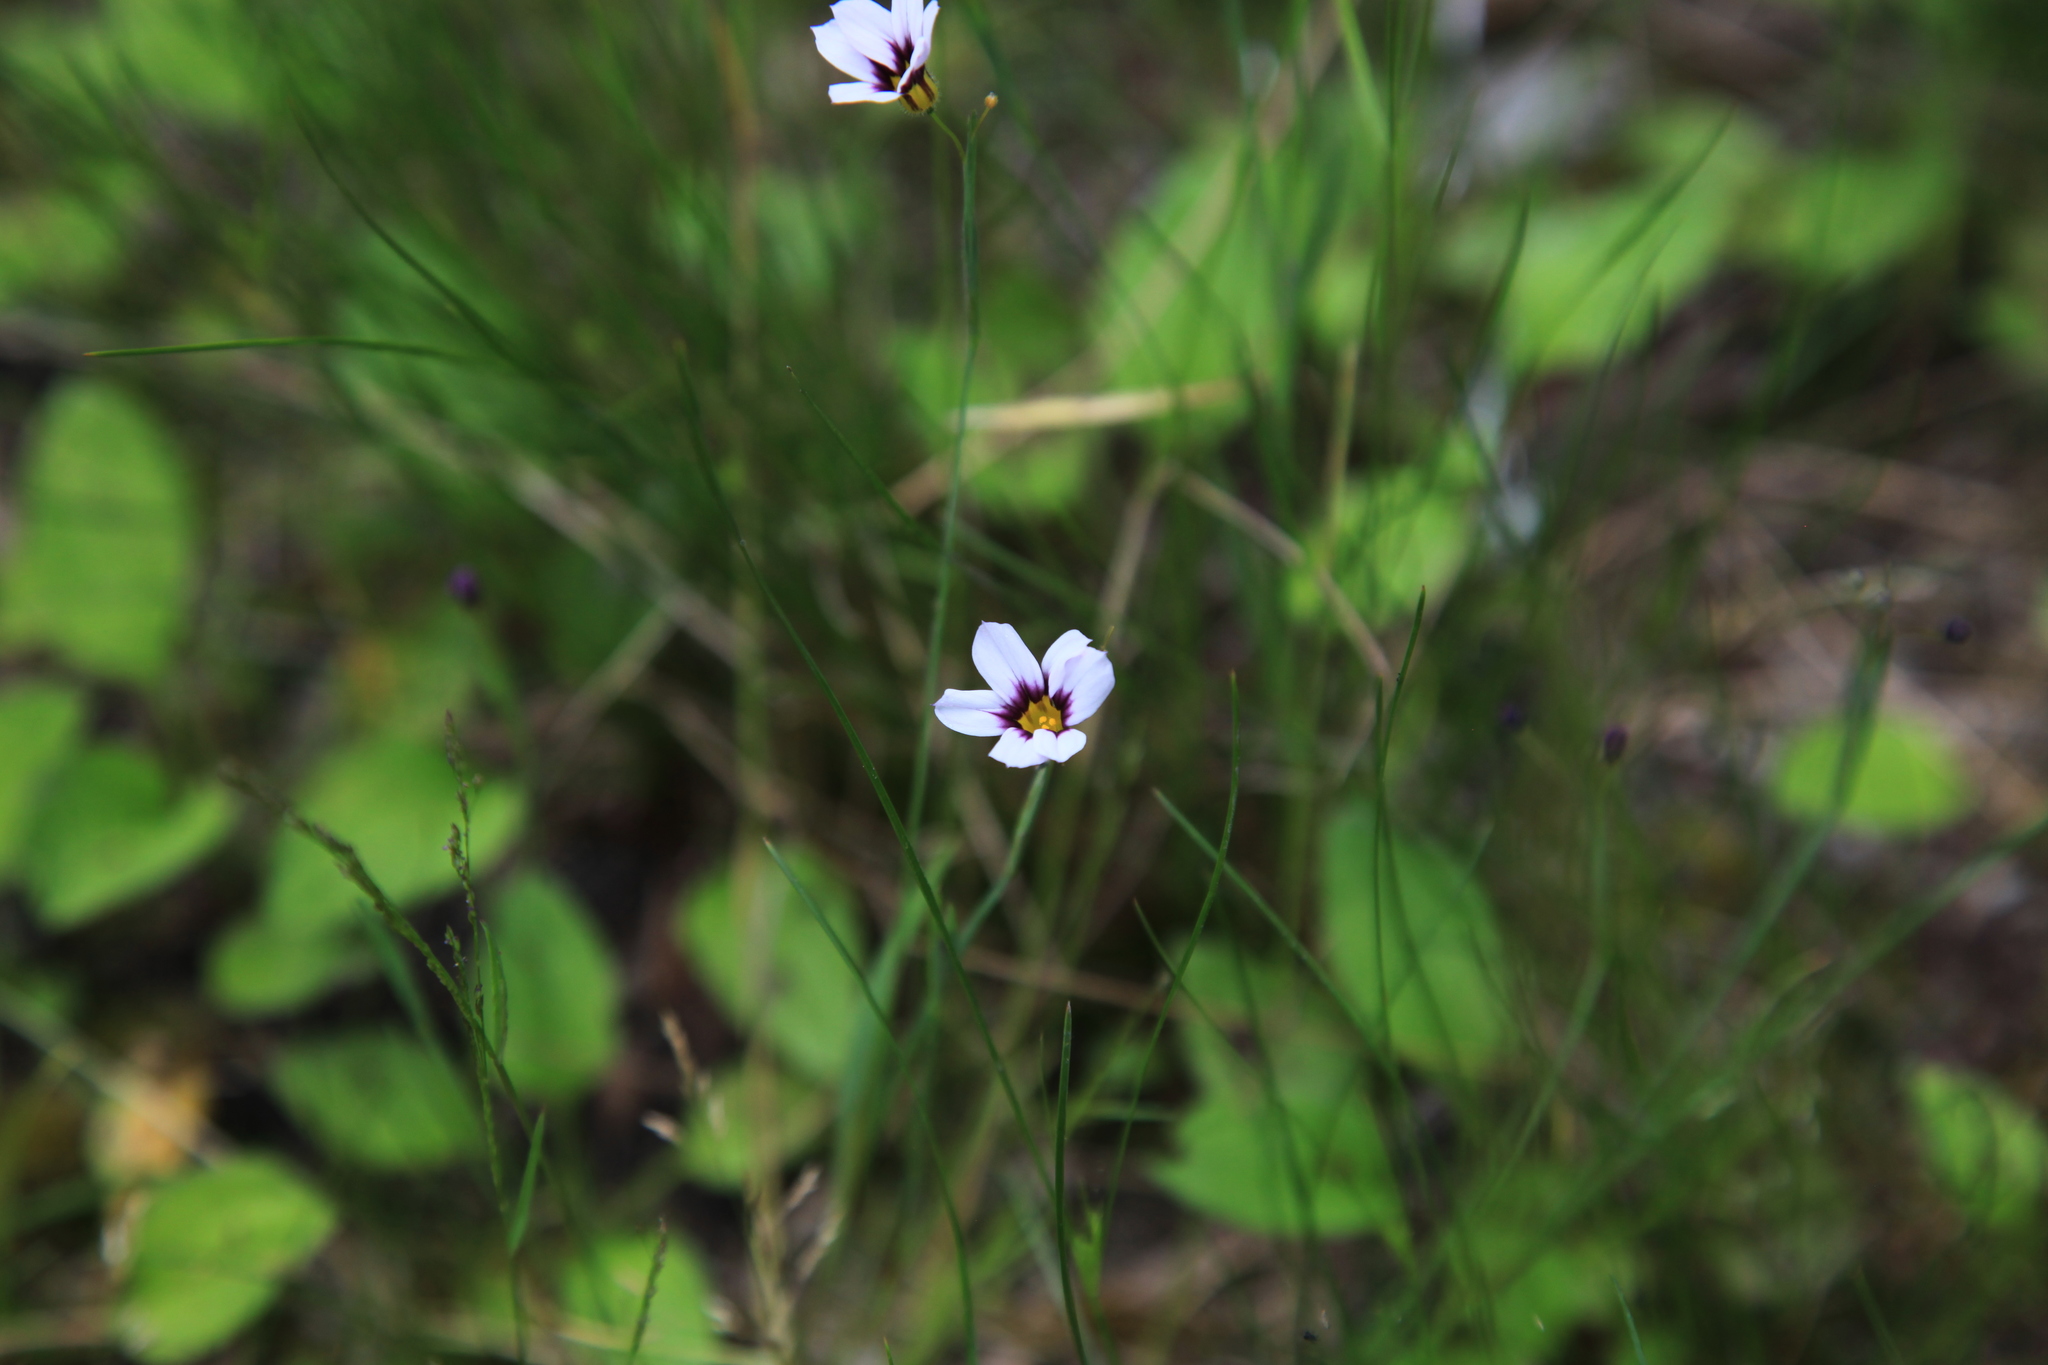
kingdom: Plantae
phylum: Tracheophyta
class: Liliopsida
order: Asparagales
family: Iridaceae
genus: Sisyrinchium
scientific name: Sisyrinchium micranthum
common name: Bermuda pigroot
